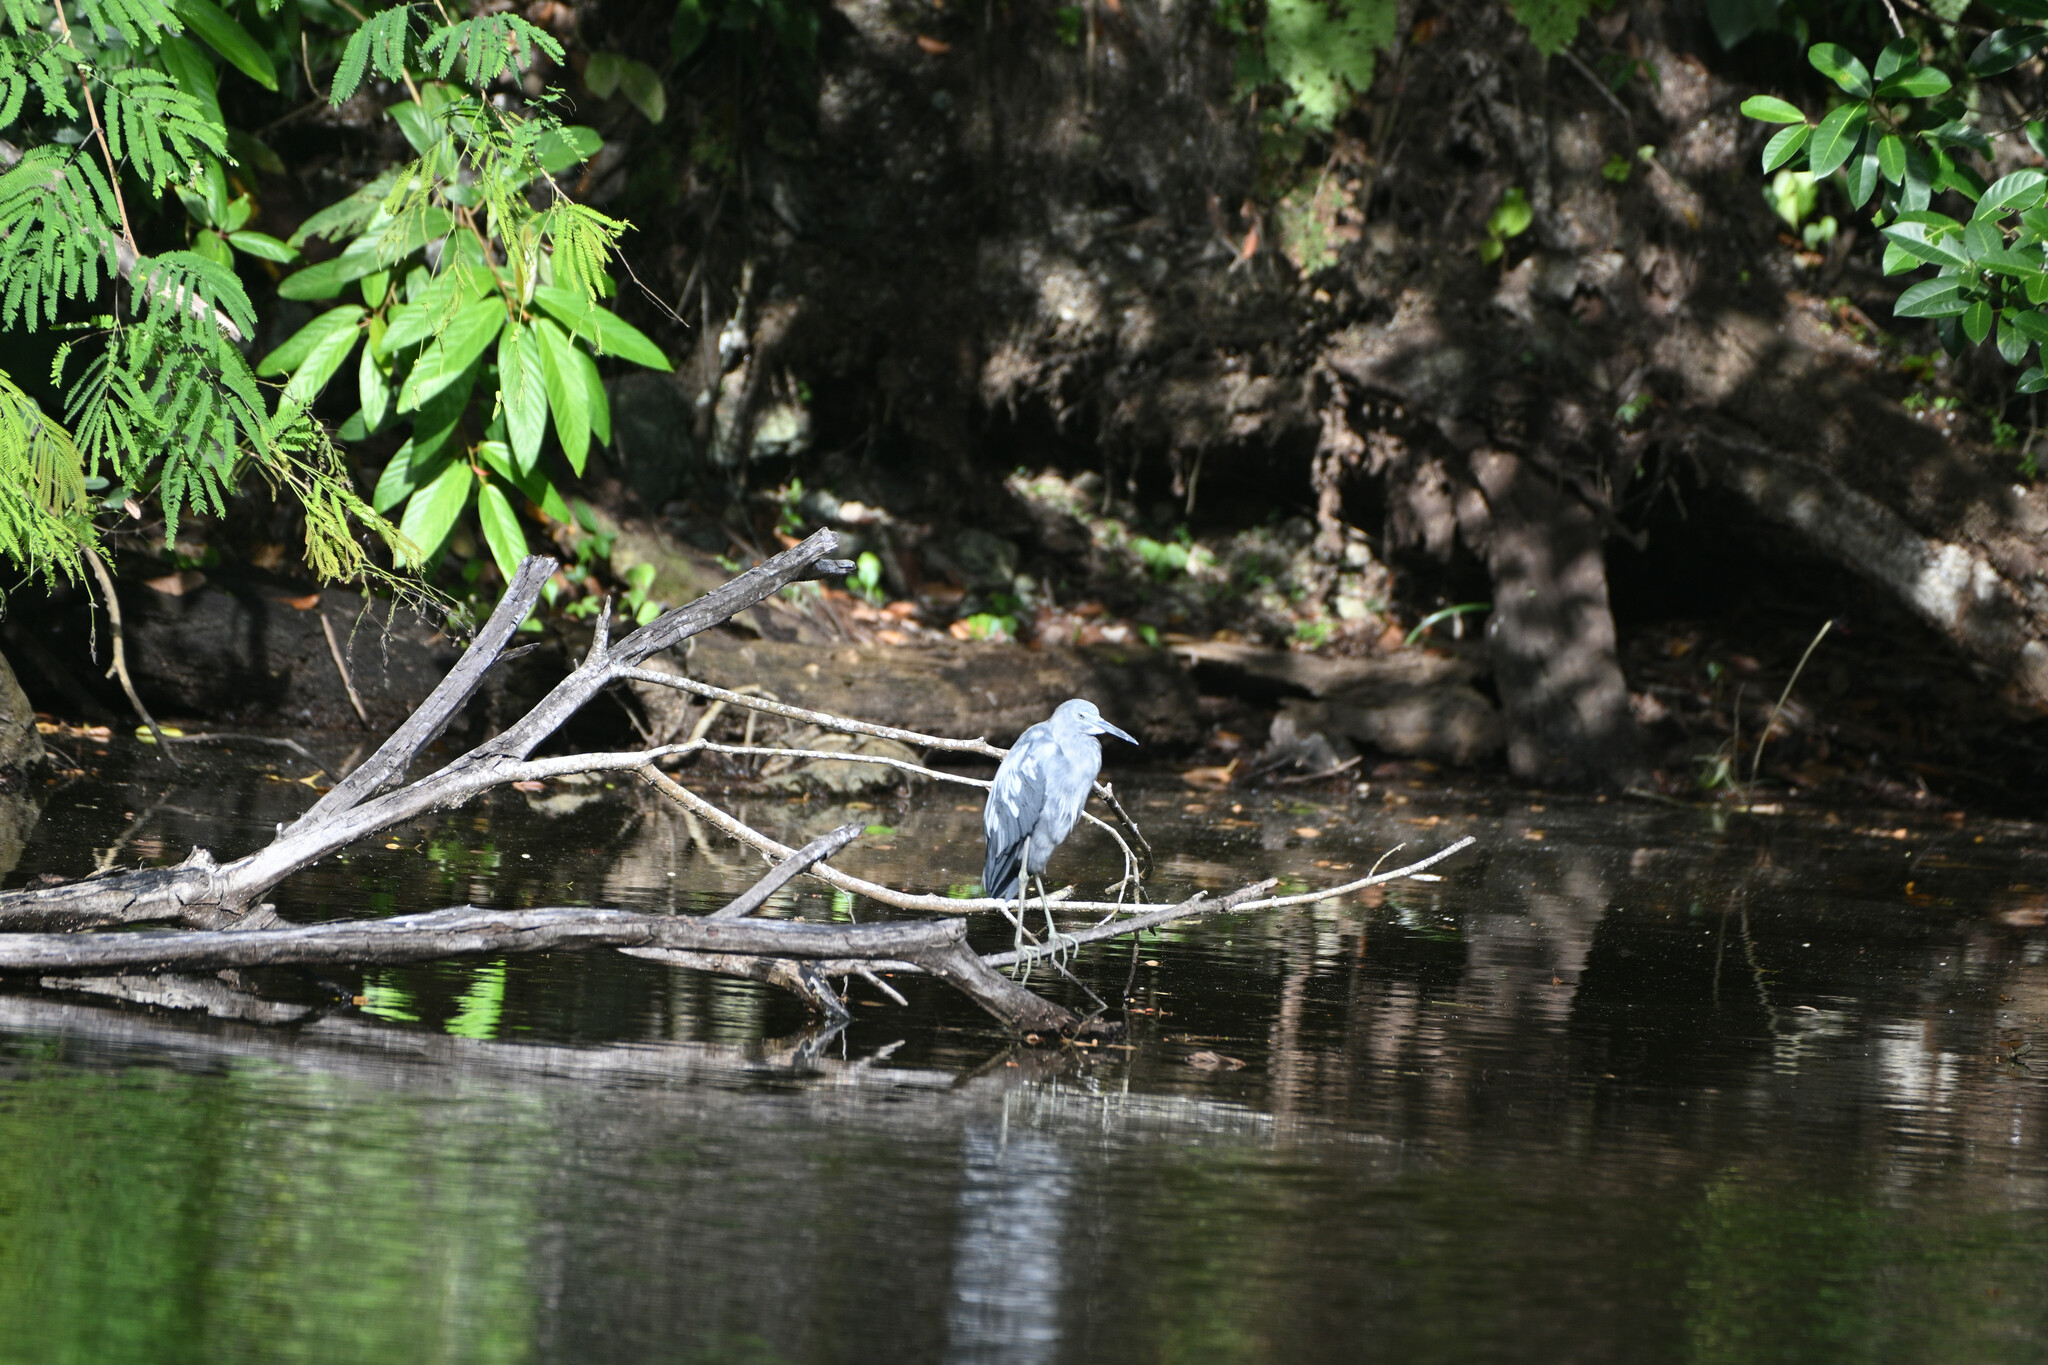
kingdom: Animalia
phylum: Chordata
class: Aves
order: Pelecaniformes
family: Ardeidae
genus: Egretta
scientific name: Egretta caerulea
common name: Little blue heron
